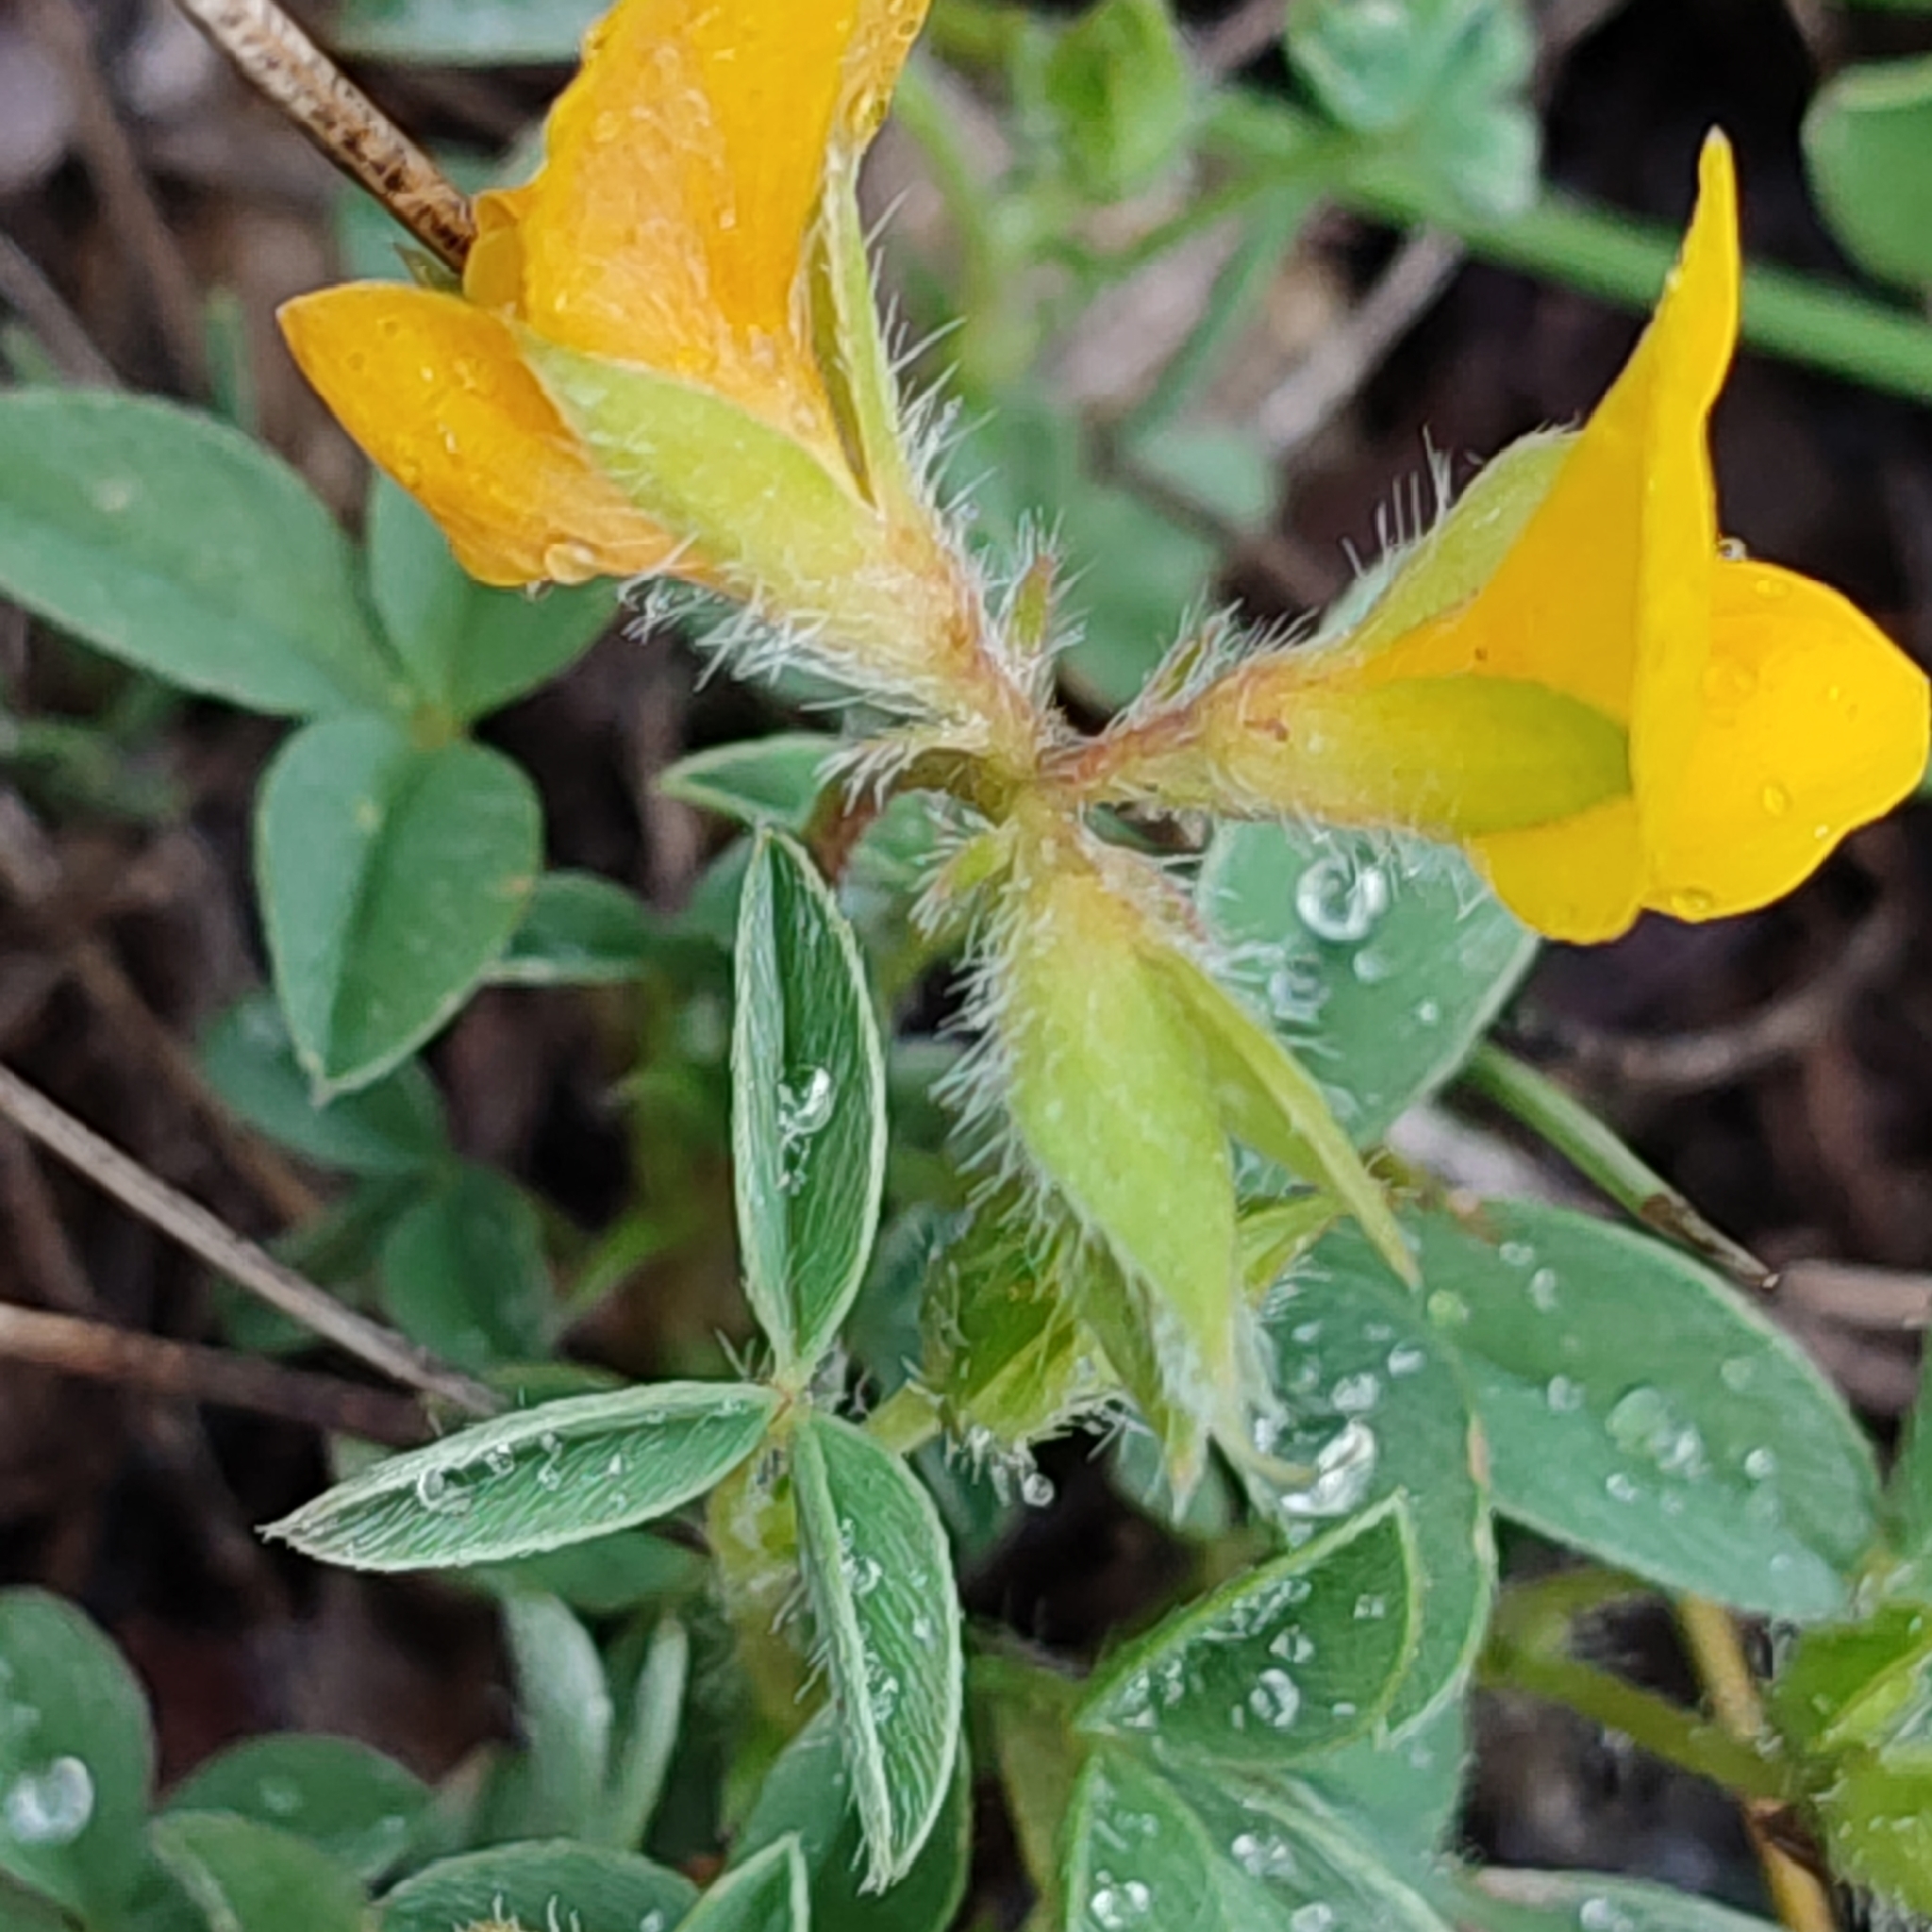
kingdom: Plantae
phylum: Tracheophyta
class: Magnoliopsida
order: Fabales
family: Fabaceae
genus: Argyrolobium
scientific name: Argyrolobium zanonii
